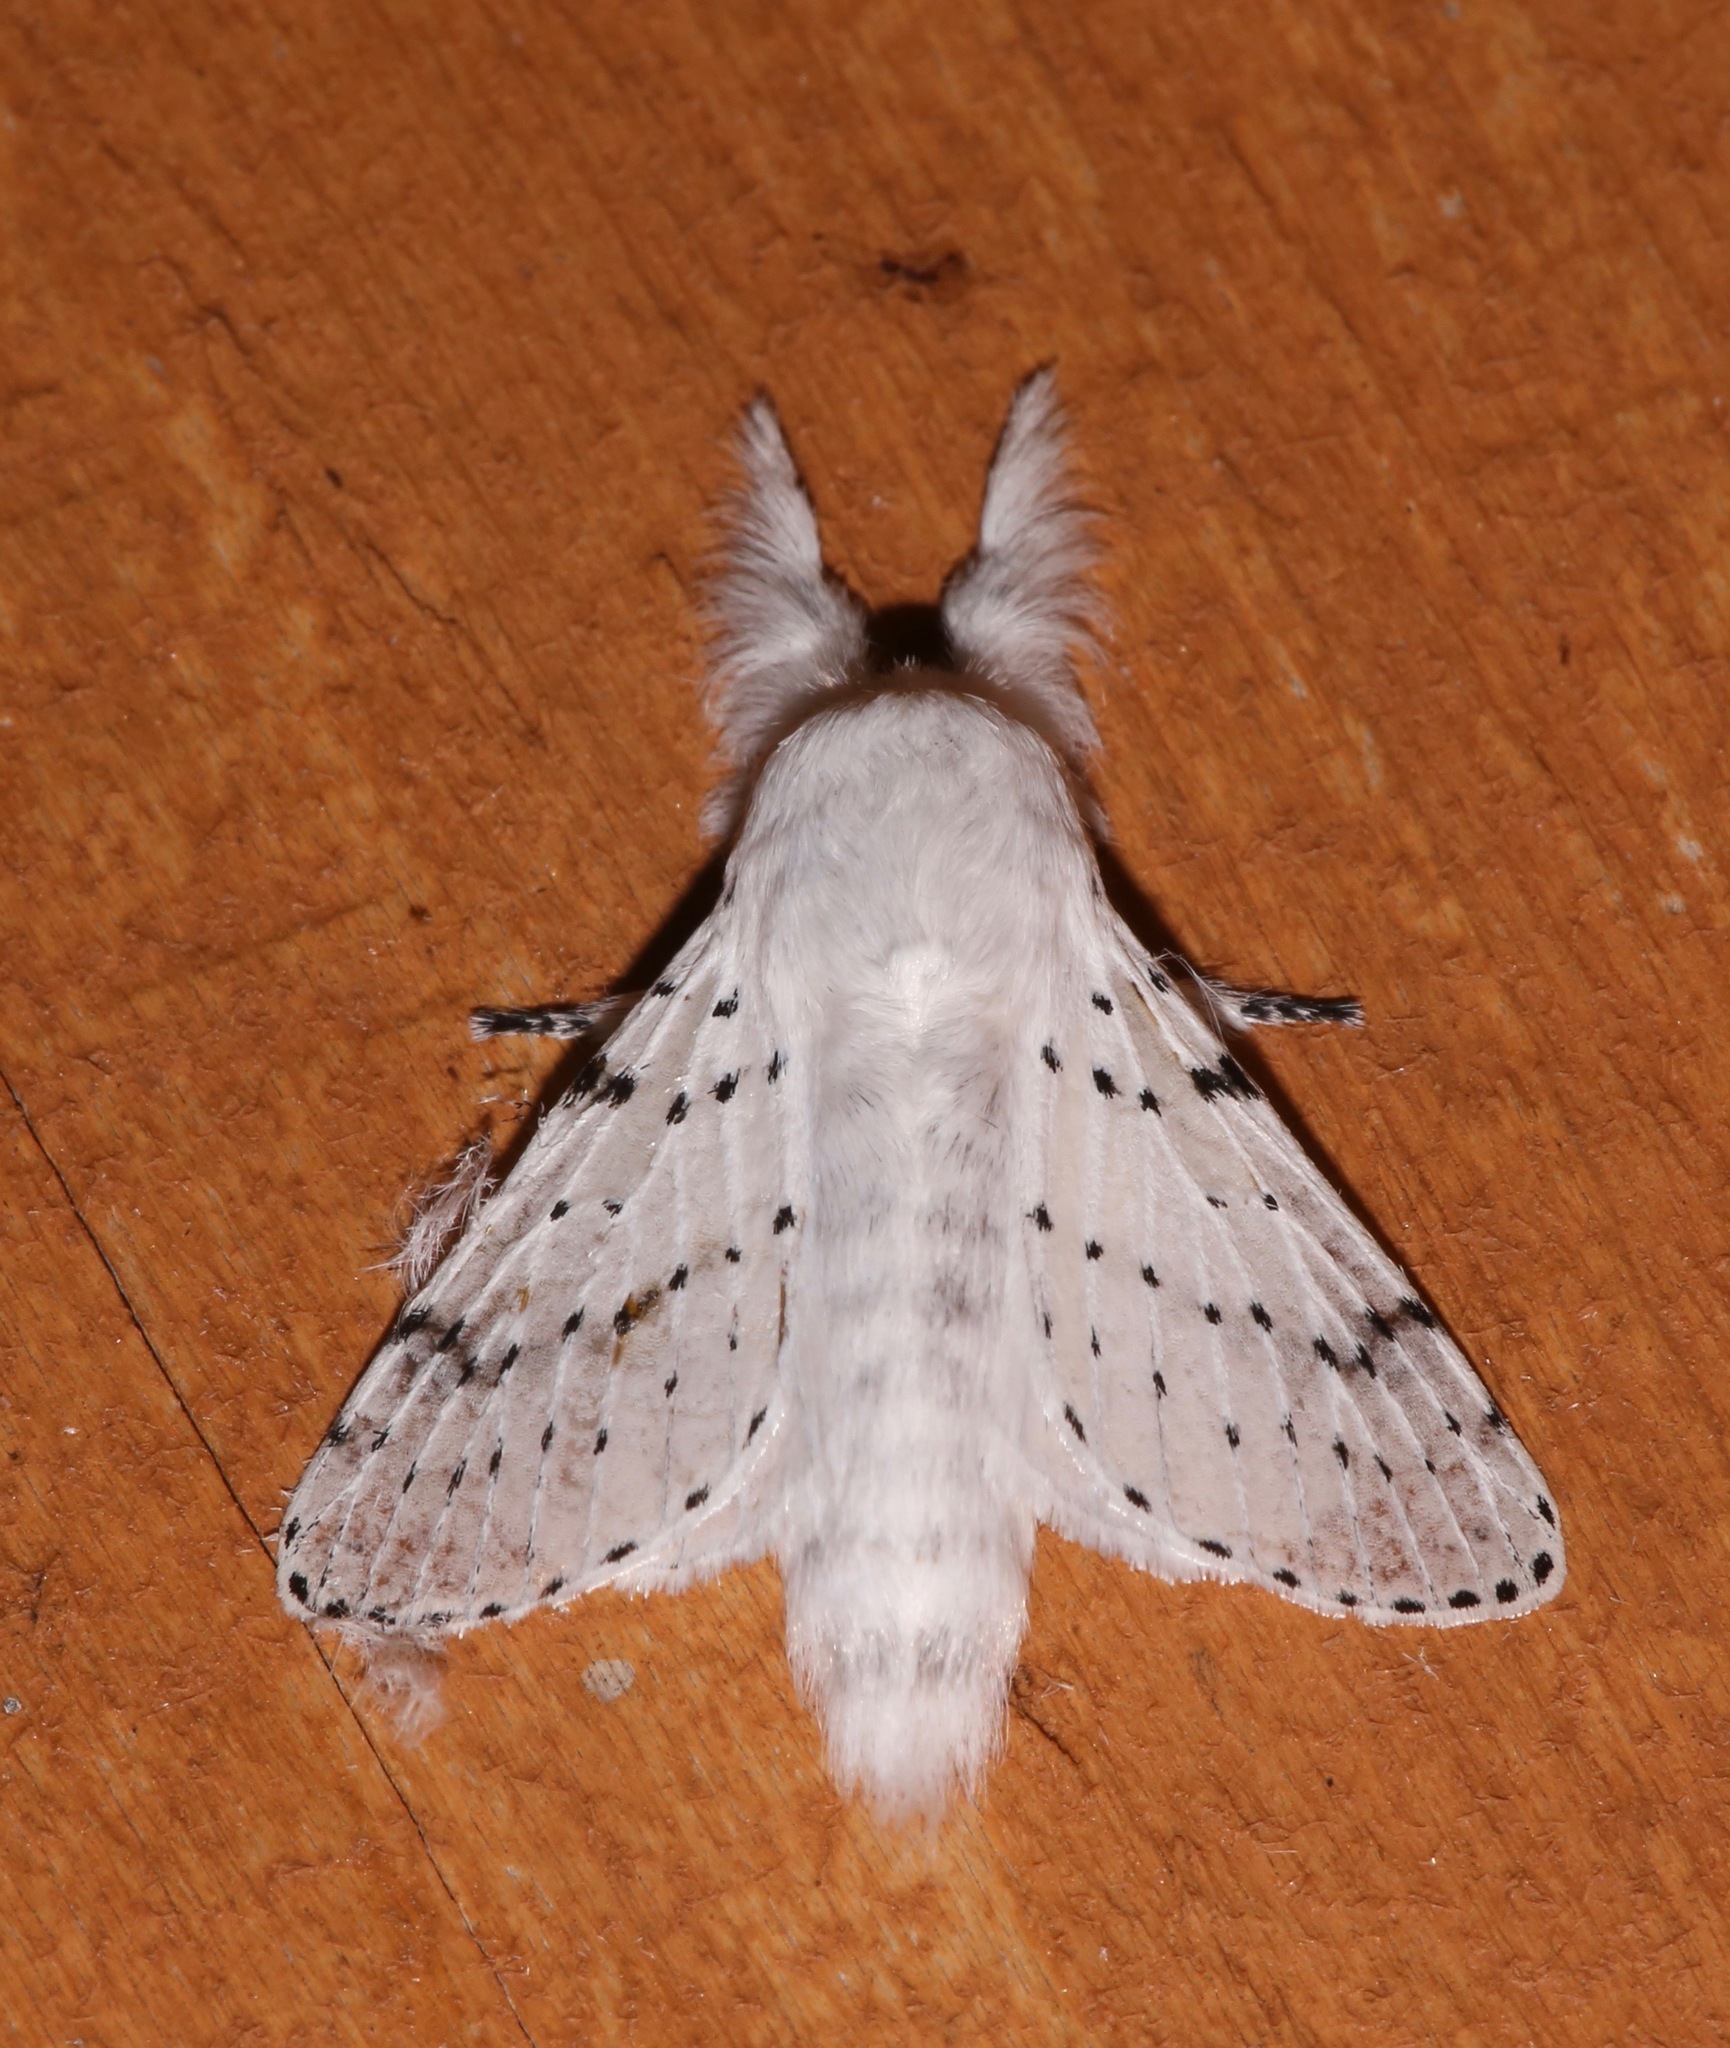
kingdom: Animalia
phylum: Arthropoda
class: Insecta
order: Lepidoptera
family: Lasiocampidae
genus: Artace
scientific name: Artace cribrarius
